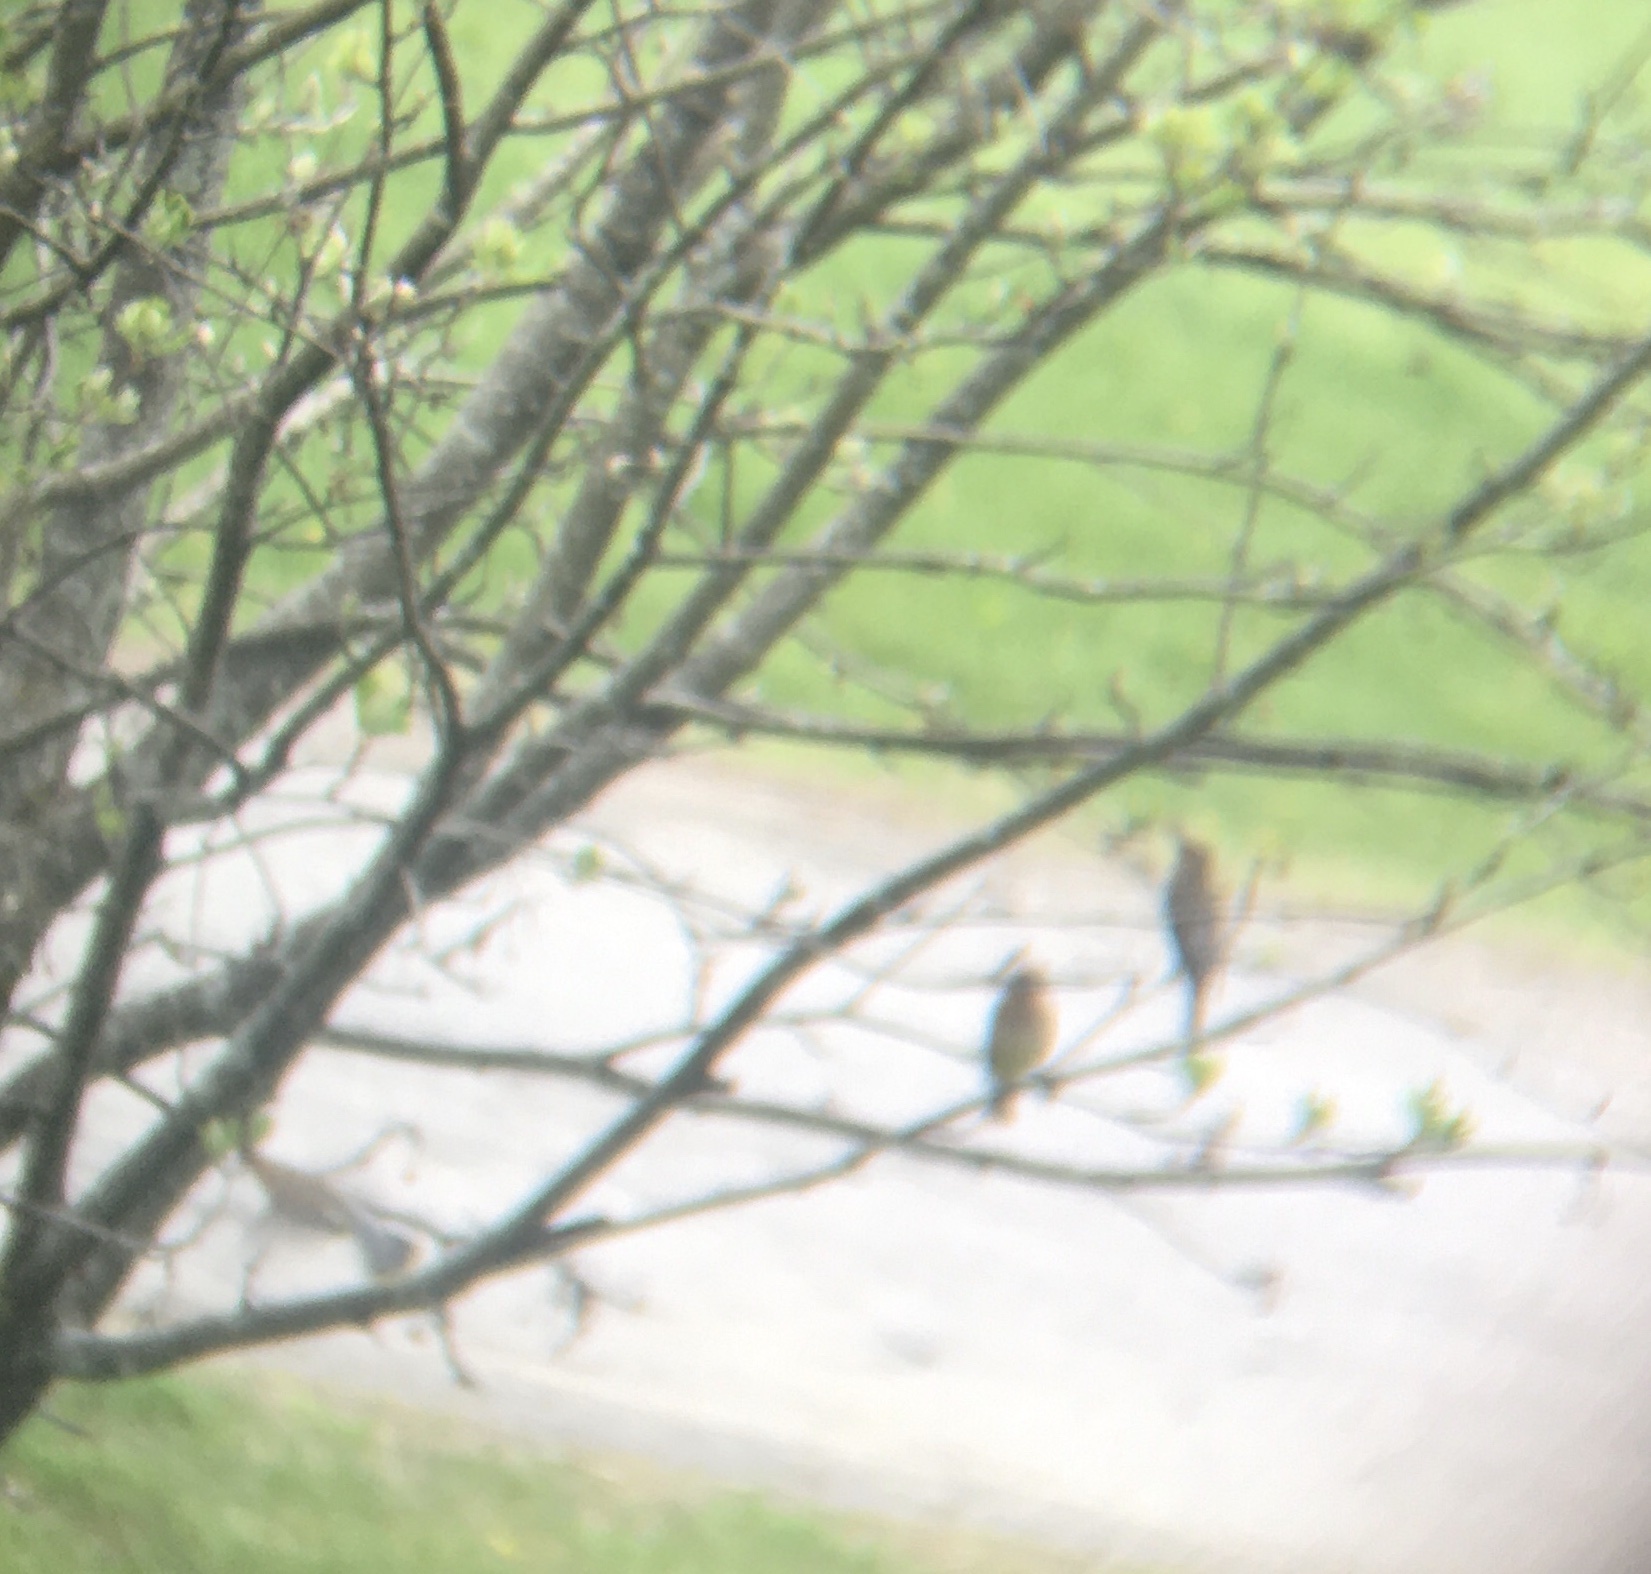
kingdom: Animalia
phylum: Chordata
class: Aves
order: Passeriformes
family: Bombycillidae
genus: Bombycilla
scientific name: Bombycilla cedrorum
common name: Cedar waxwing
